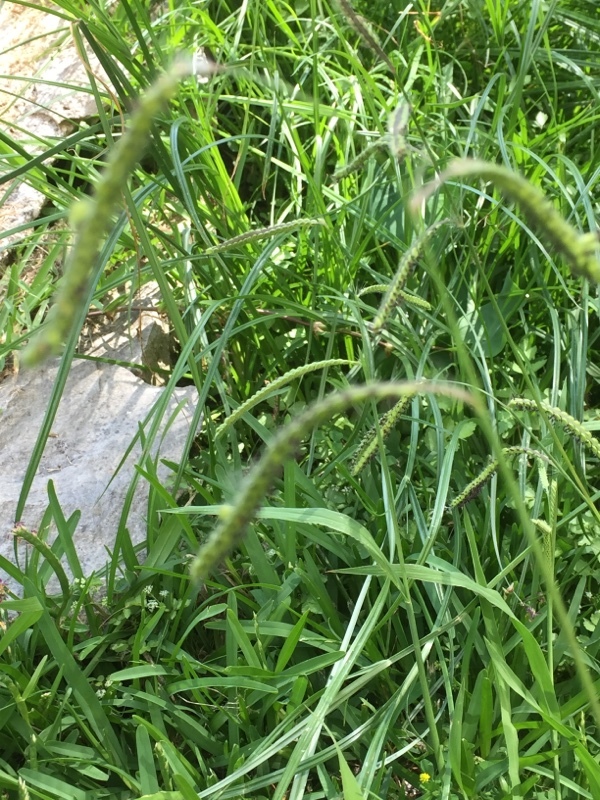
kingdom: Plantae
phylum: Tracheophyta
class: Liliopsida
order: Poales
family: Poaceae
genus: Paspalum
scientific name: Paspalum dilatatum
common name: Dallisgrass
